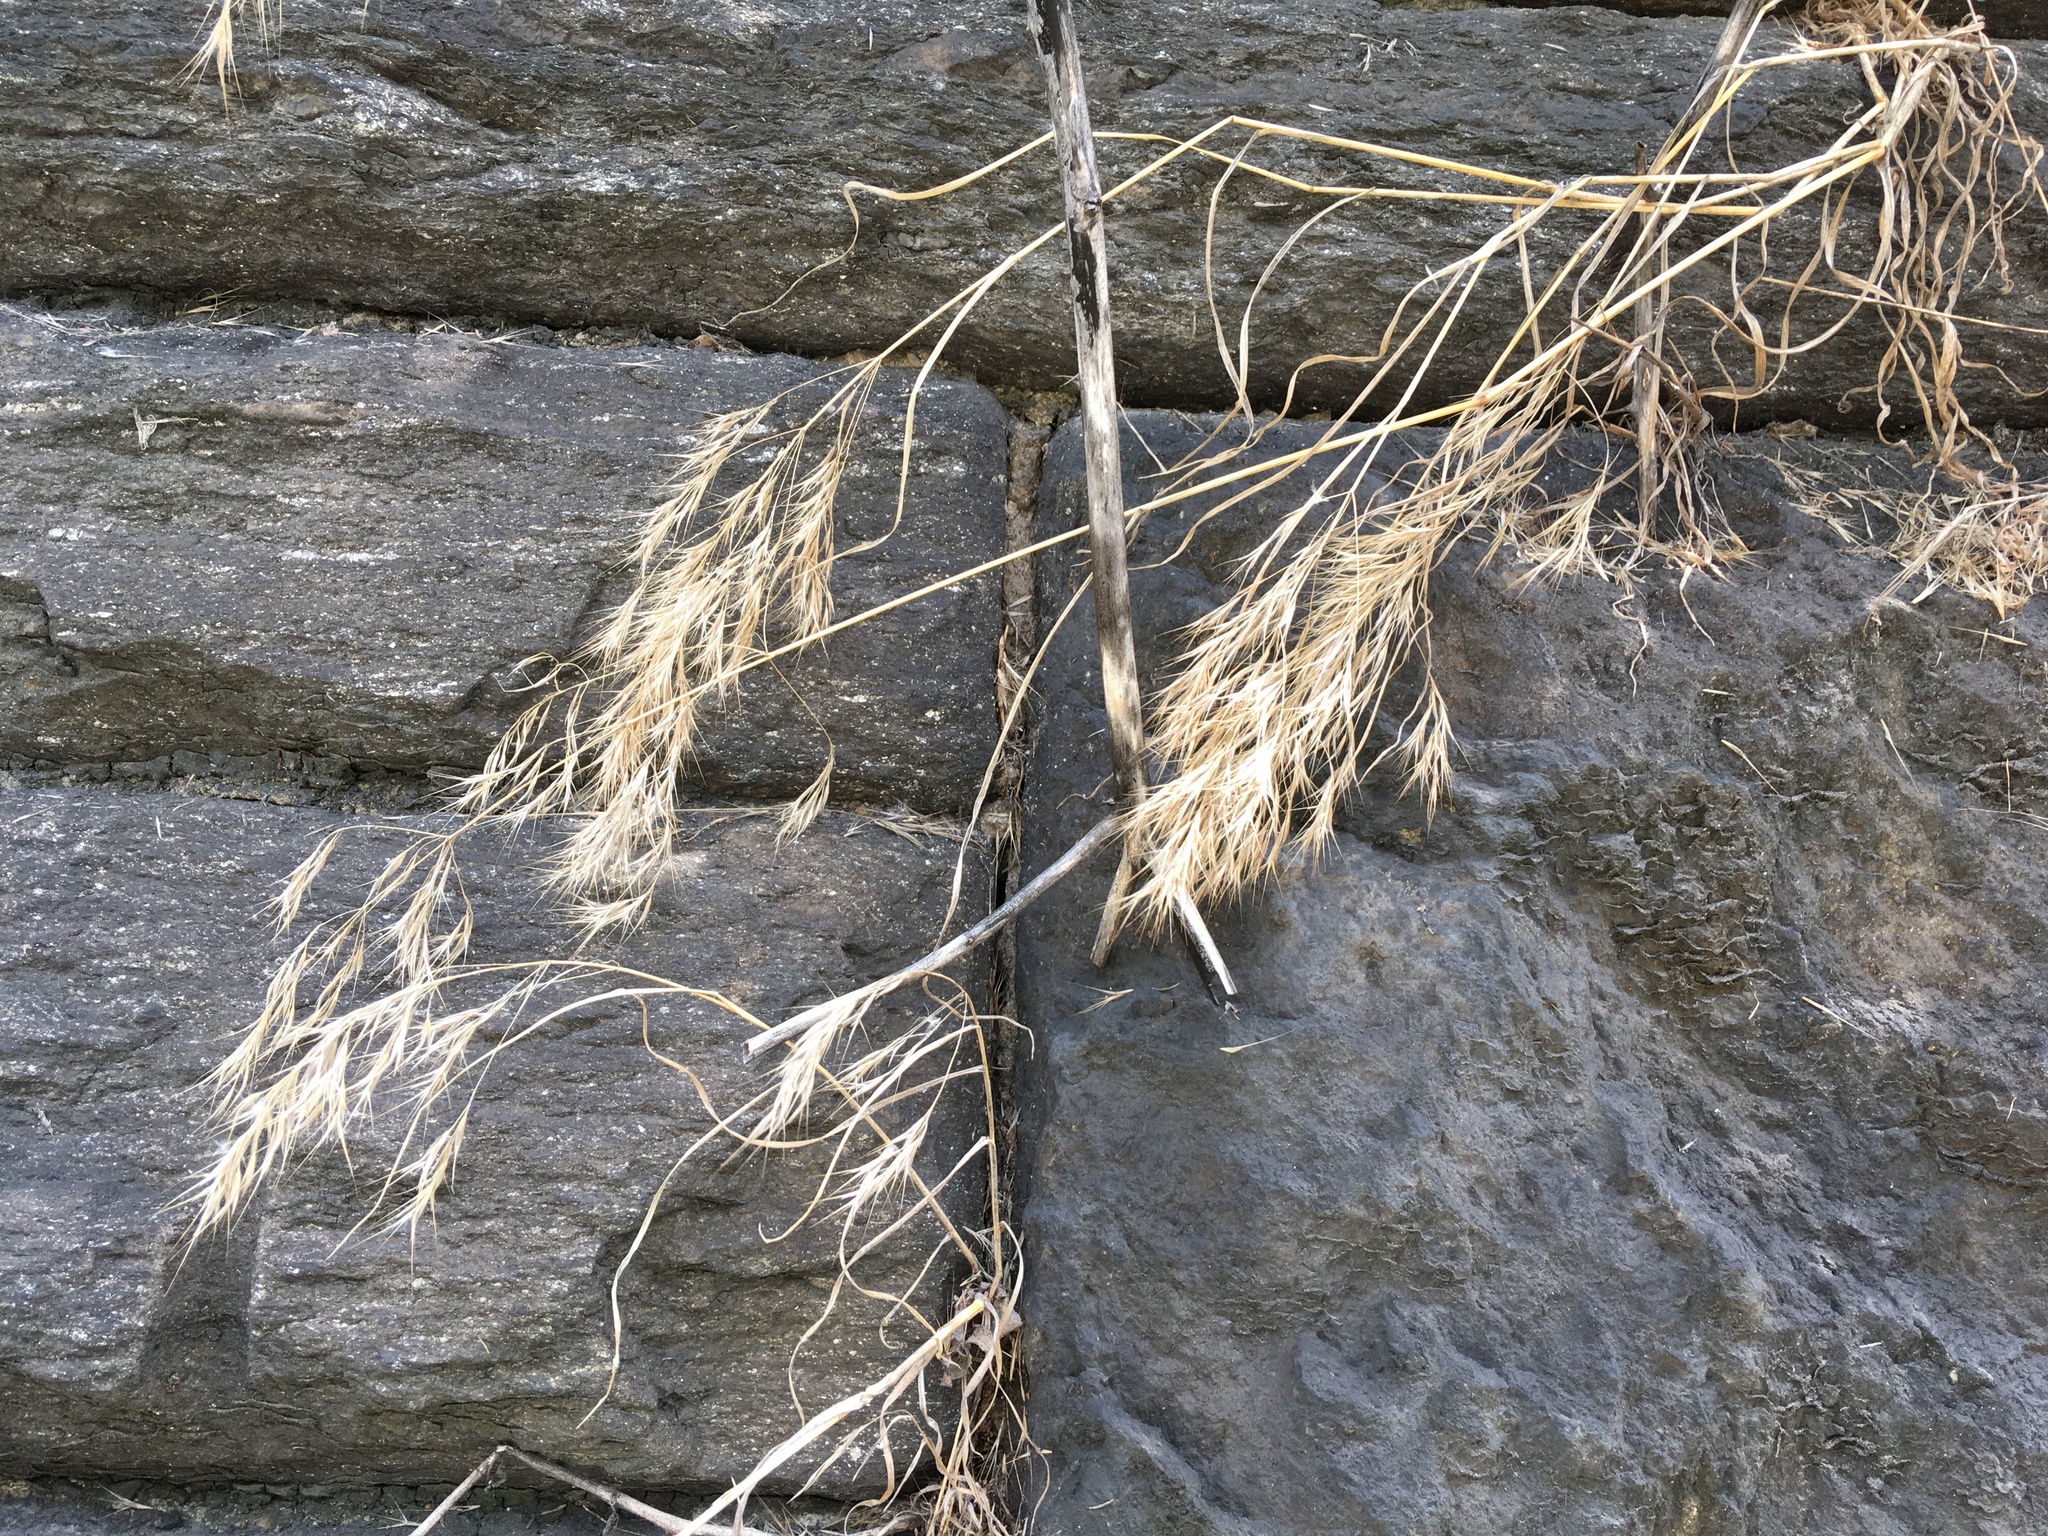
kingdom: Plantae
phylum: Tracheophyta
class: Liliopsida
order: Poales
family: Poaceae
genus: Bromus
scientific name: Bromus tectorum
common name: Cheatgrass
